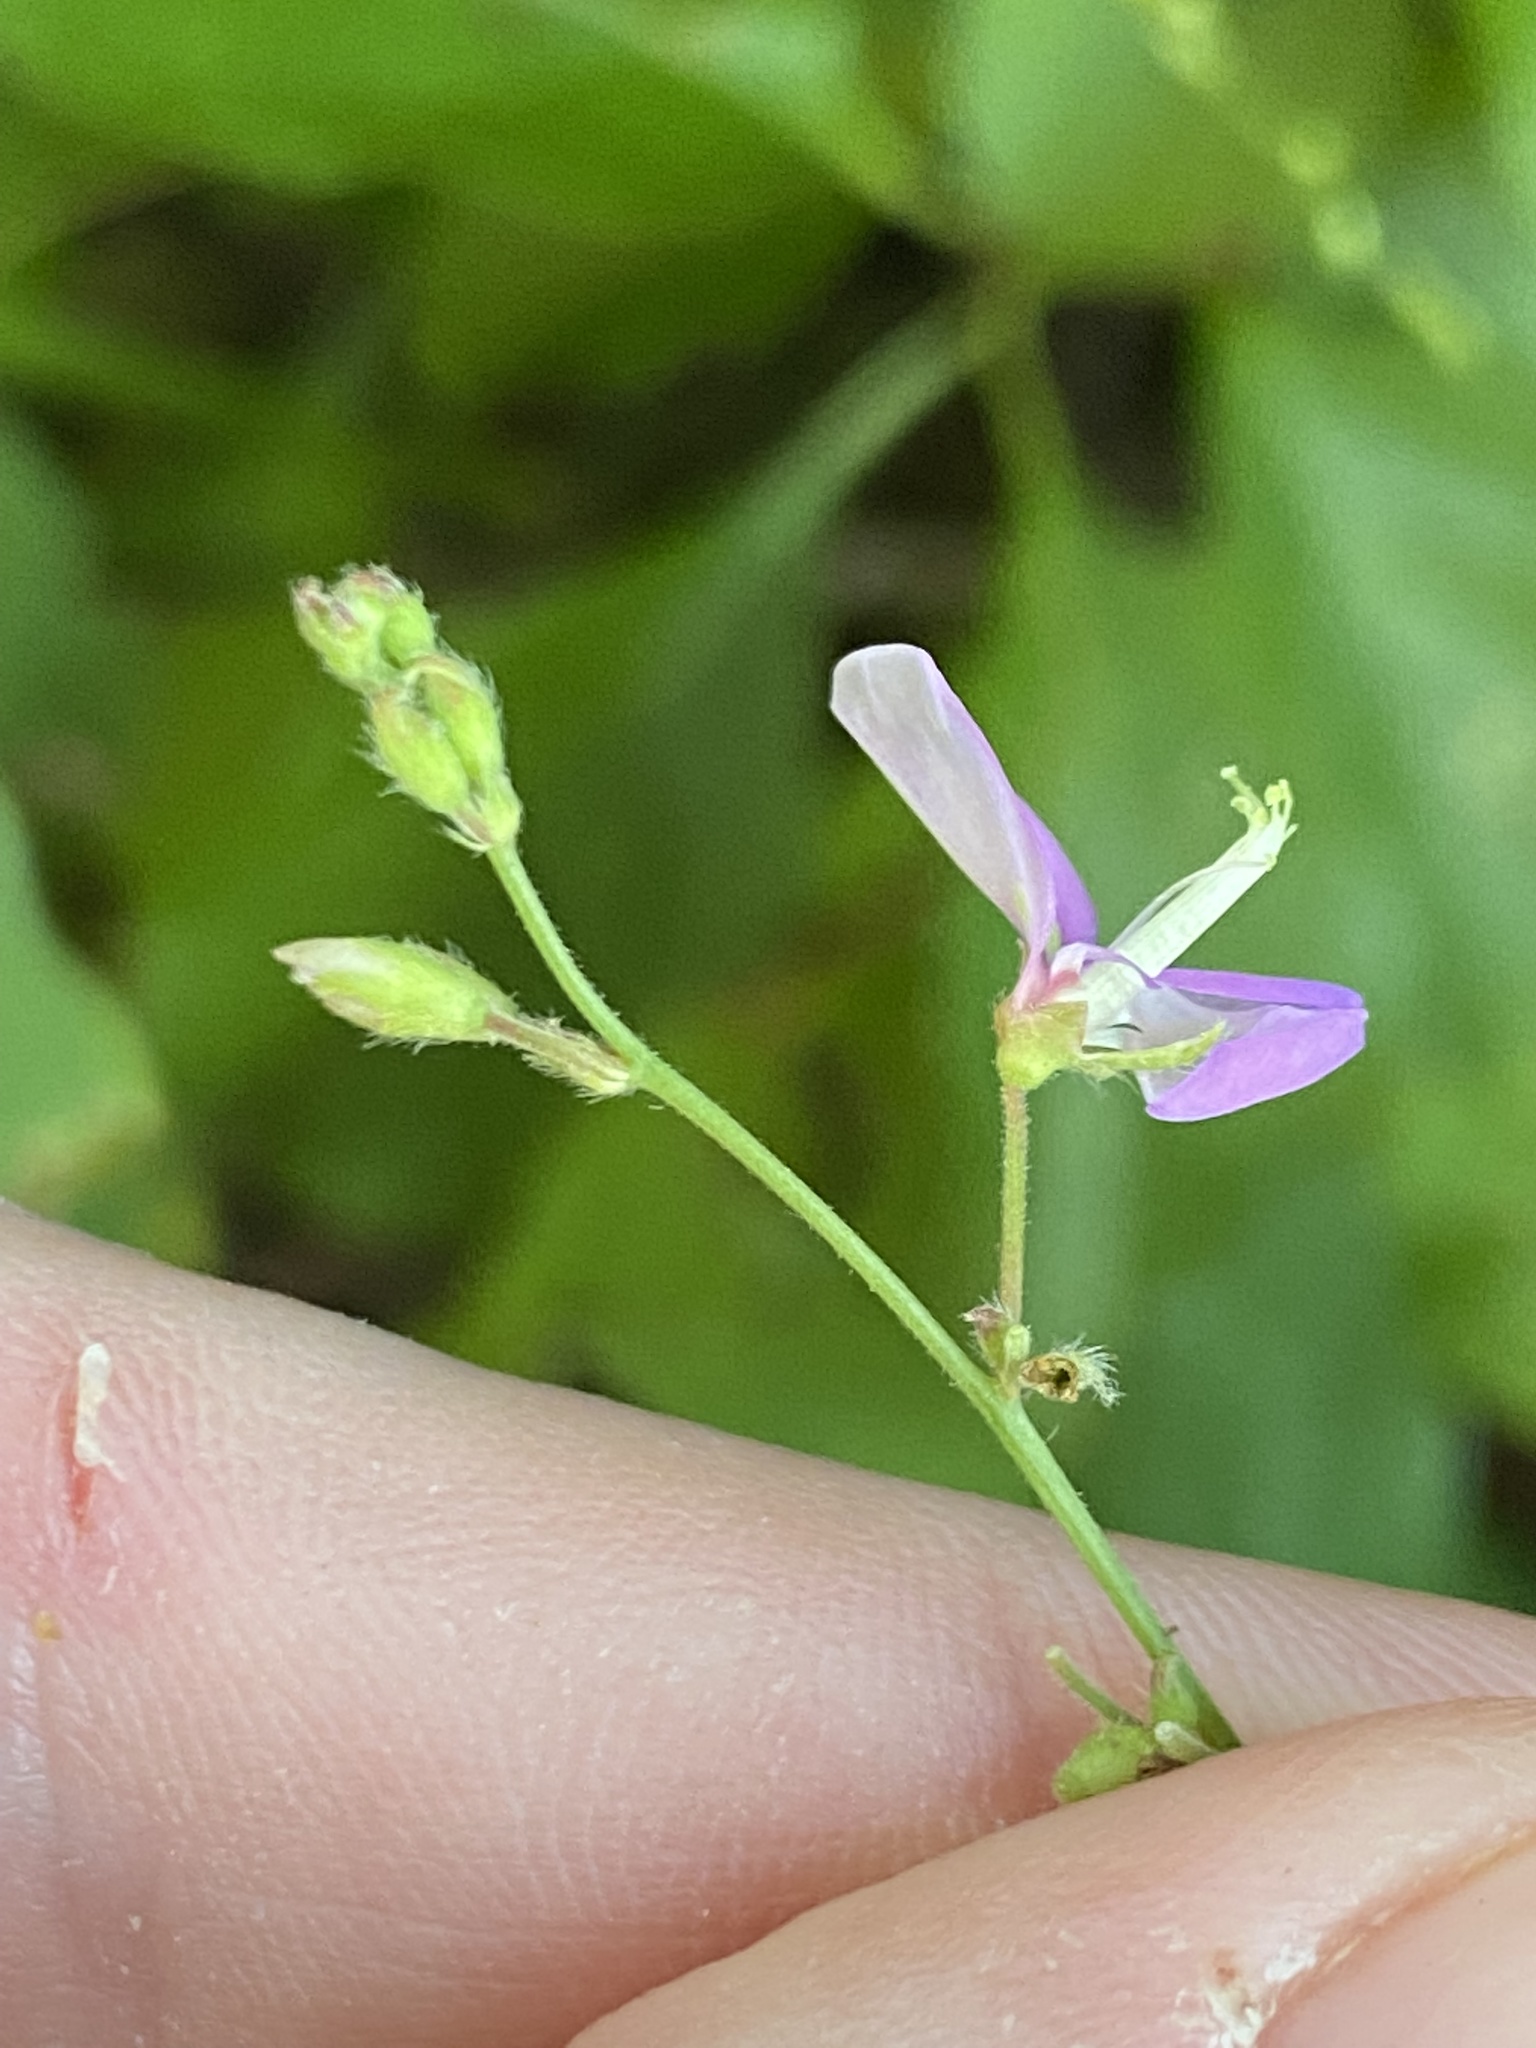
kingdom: Plantae
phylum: Tracheophyta
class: Magnoliopsida
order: Fabales
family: Fabaceae
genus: Desmodium
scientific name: Desmodium paniculatum
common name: Panicled tick-clover
